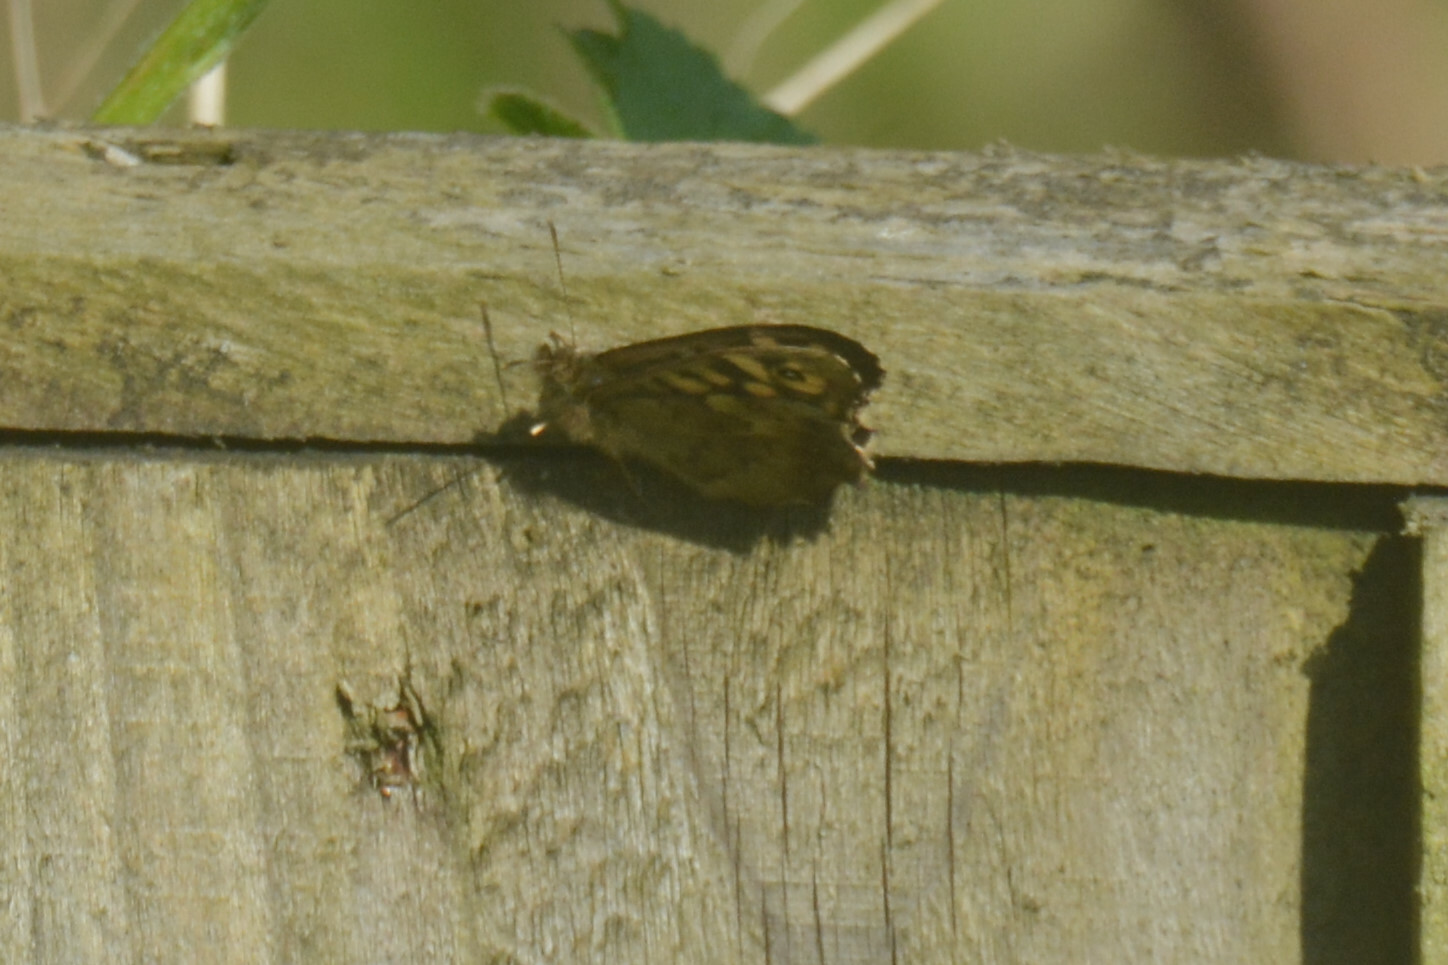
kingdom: Animalia
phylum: Arthropoda
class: Insecta
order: Lepidoptera
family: Nymphalidae
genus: Pararge
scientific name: Pararge aegeria
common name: Speckled wood
